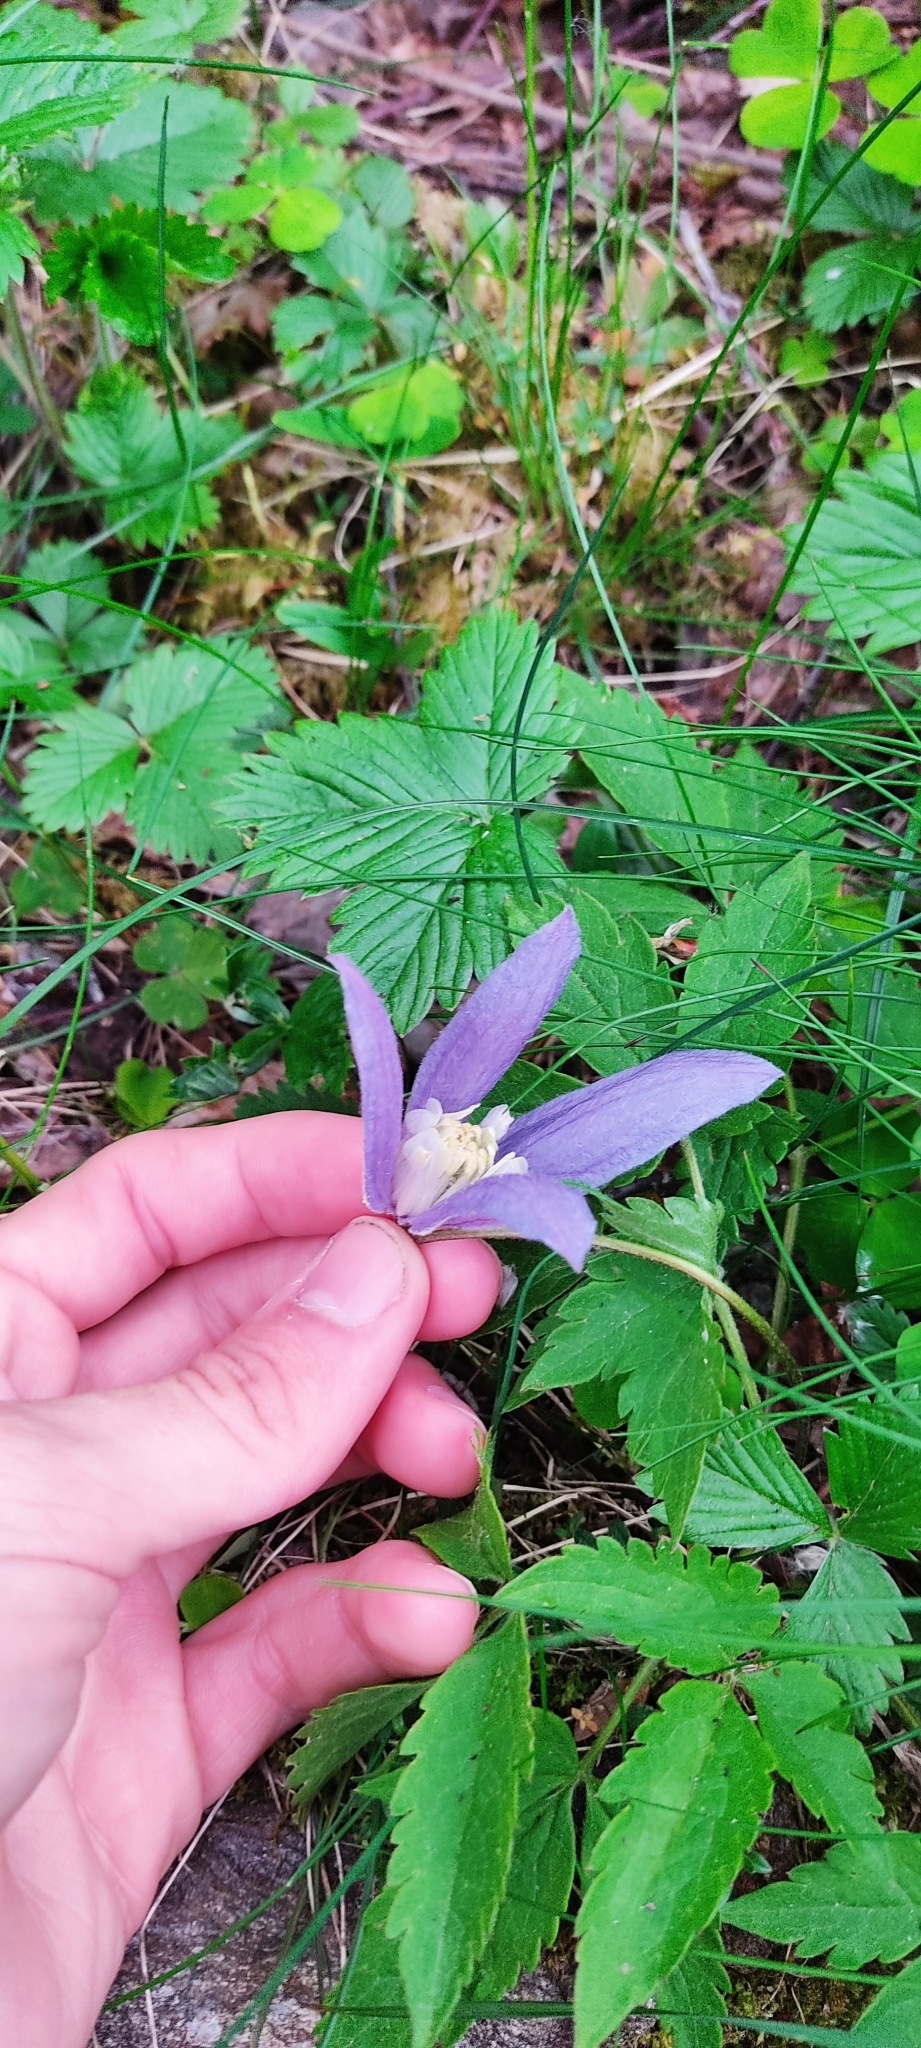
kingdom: Plantae
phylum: Tracheophyta
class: Magnoliopsida
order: Ranunculales
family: Ranunculaceae
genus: Clematis
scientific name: Clematis alpina
